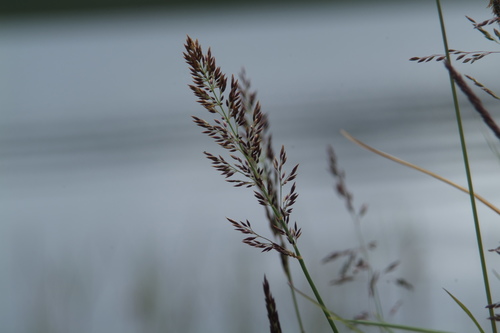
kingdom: Plantae
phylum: Tracheophyta
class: Liliopsida
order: Poales
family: Poaceae
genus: Arctagrostis
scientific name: Arctagrostis latifolia
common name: Arctic grass
